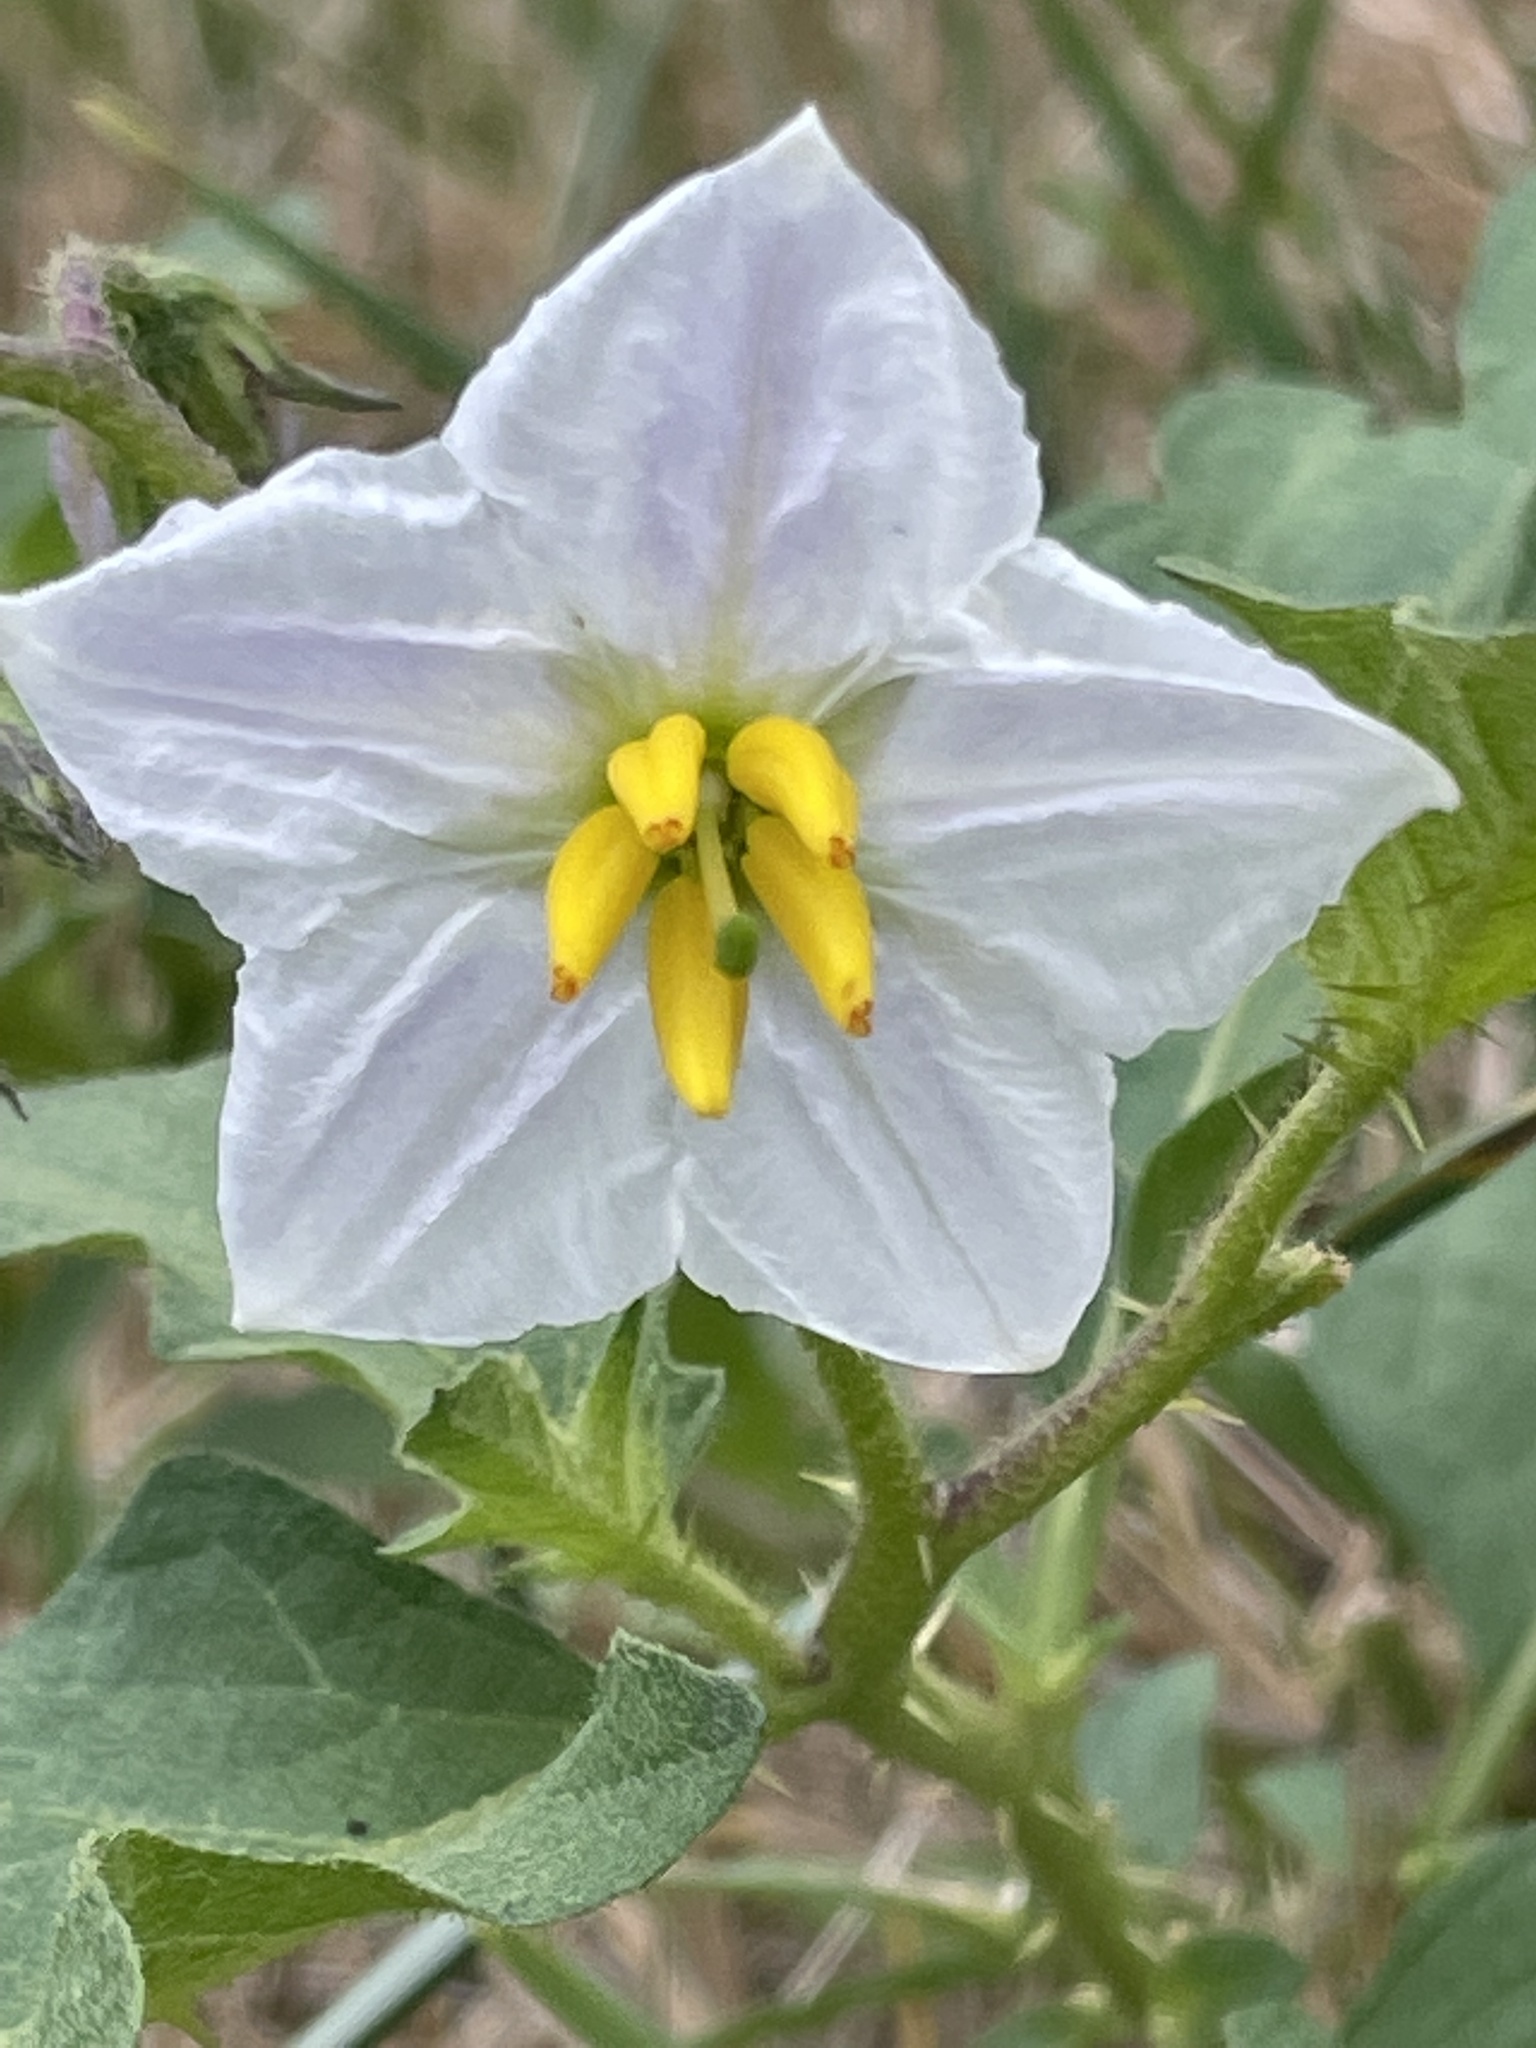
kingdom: Plantae
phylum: Tracheophyta
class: Magnoliopsida
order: Solanales
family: Solanaceae
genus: Solanum
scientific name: Solanum carolinense
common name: Horse-nettle
